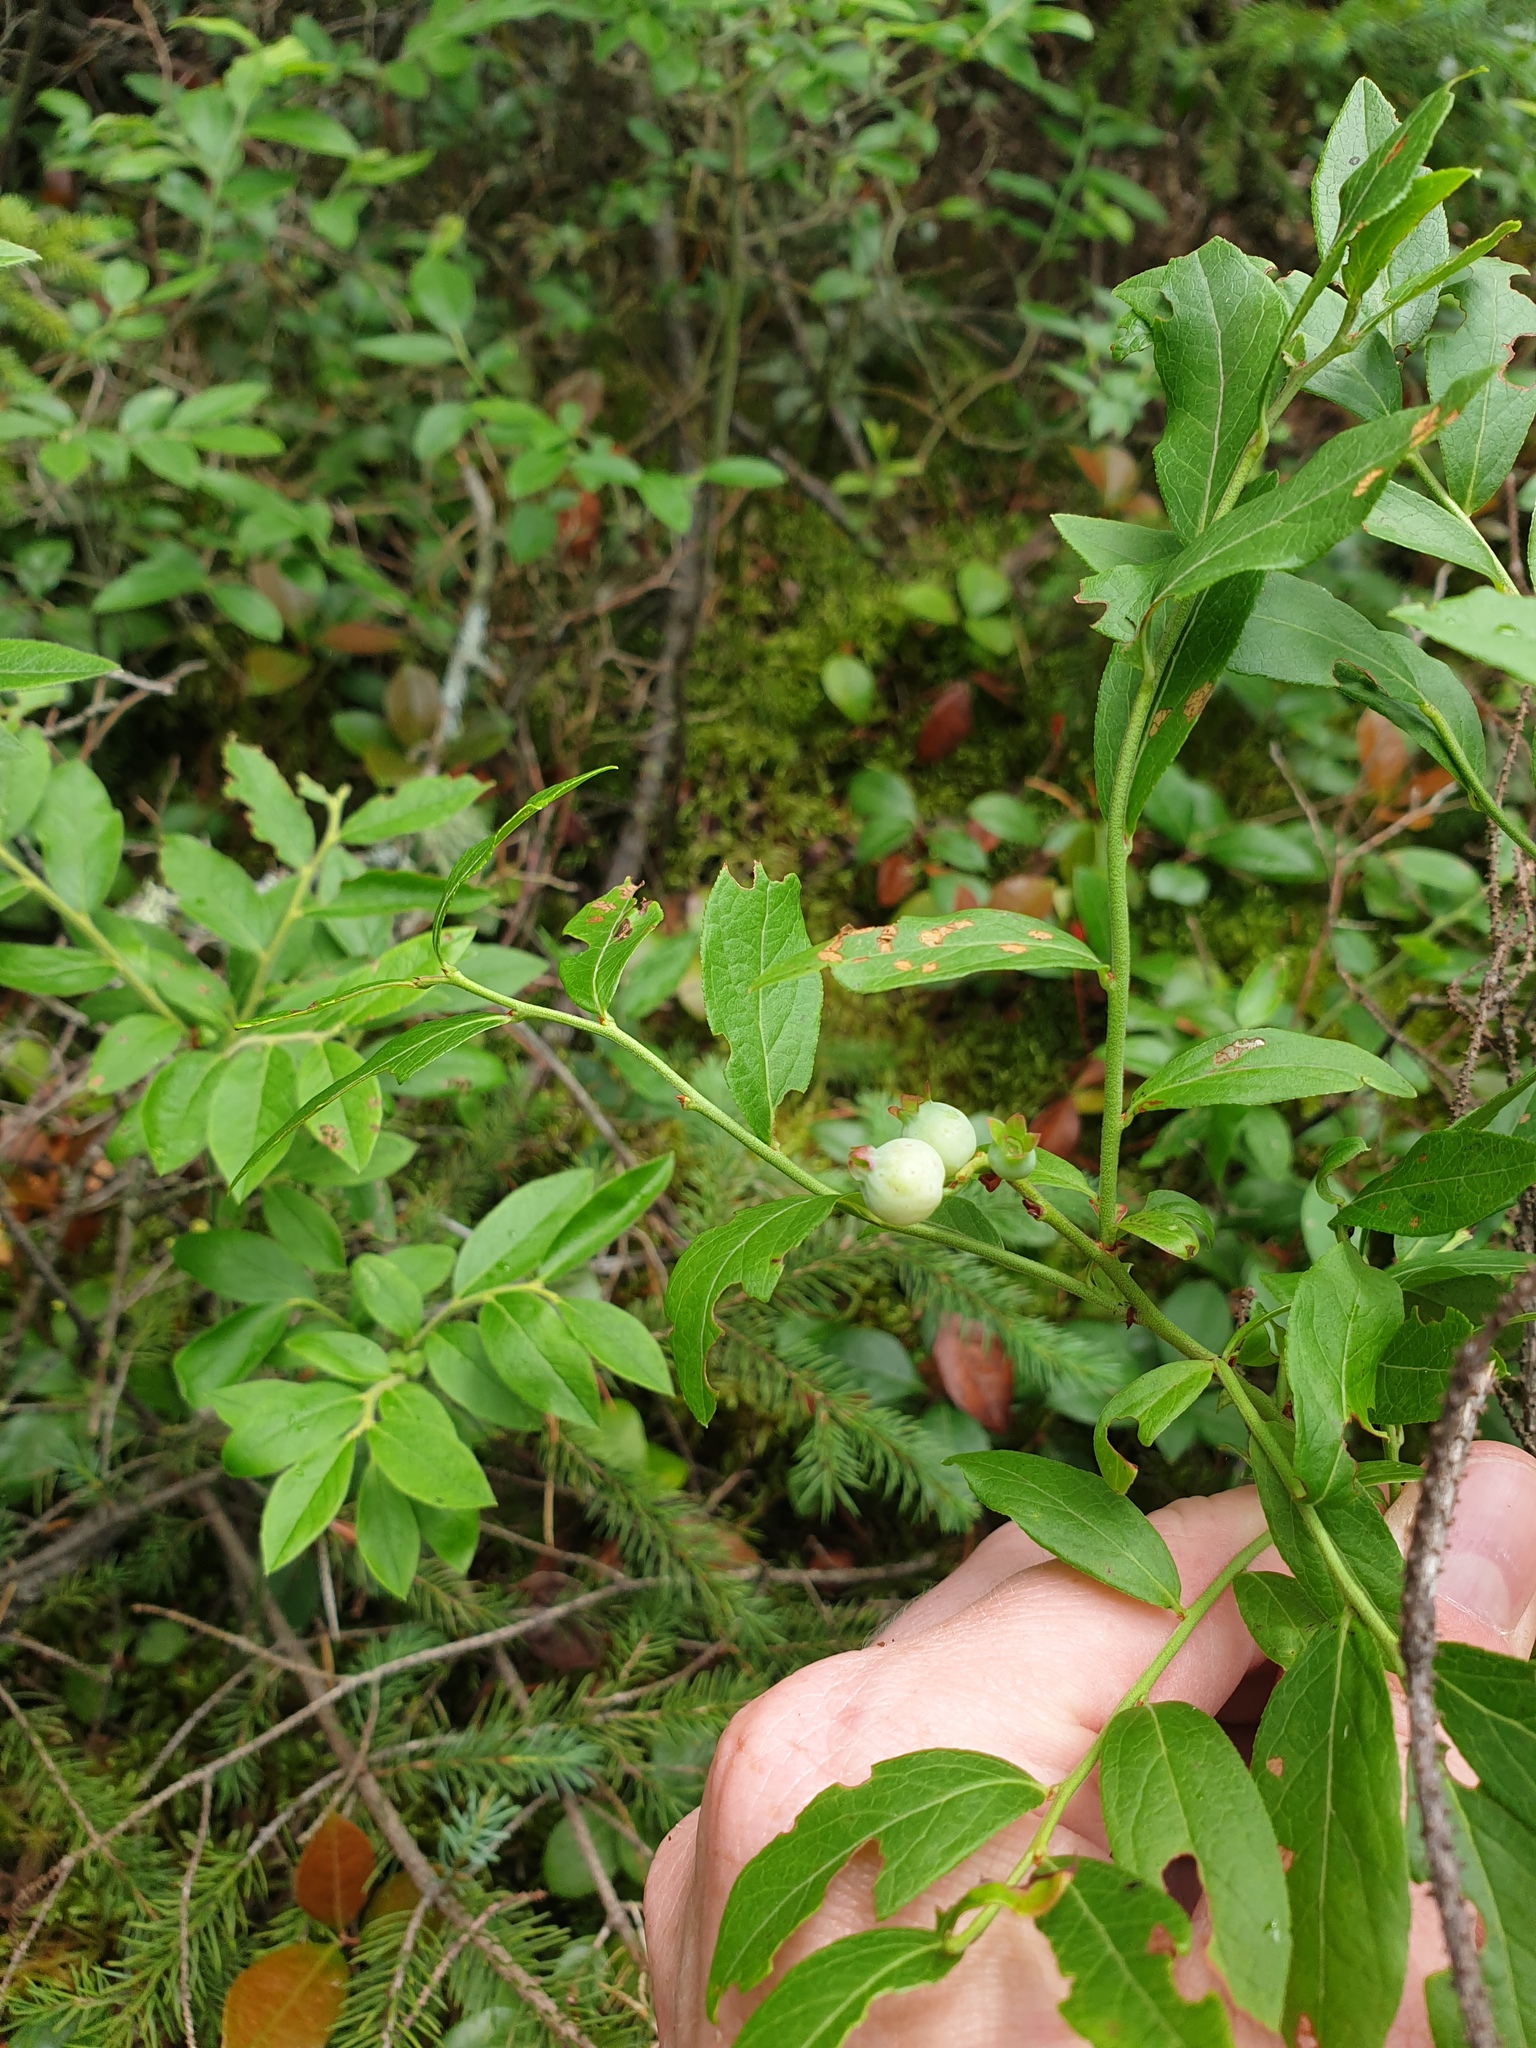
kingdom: Plantae
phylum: Tracheophyta
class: Magnoliopsida
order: Ericales
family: Ericaceae
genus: Vaccinium
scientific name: Vaccinium angustifolium
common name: Early lowbush blueberry
